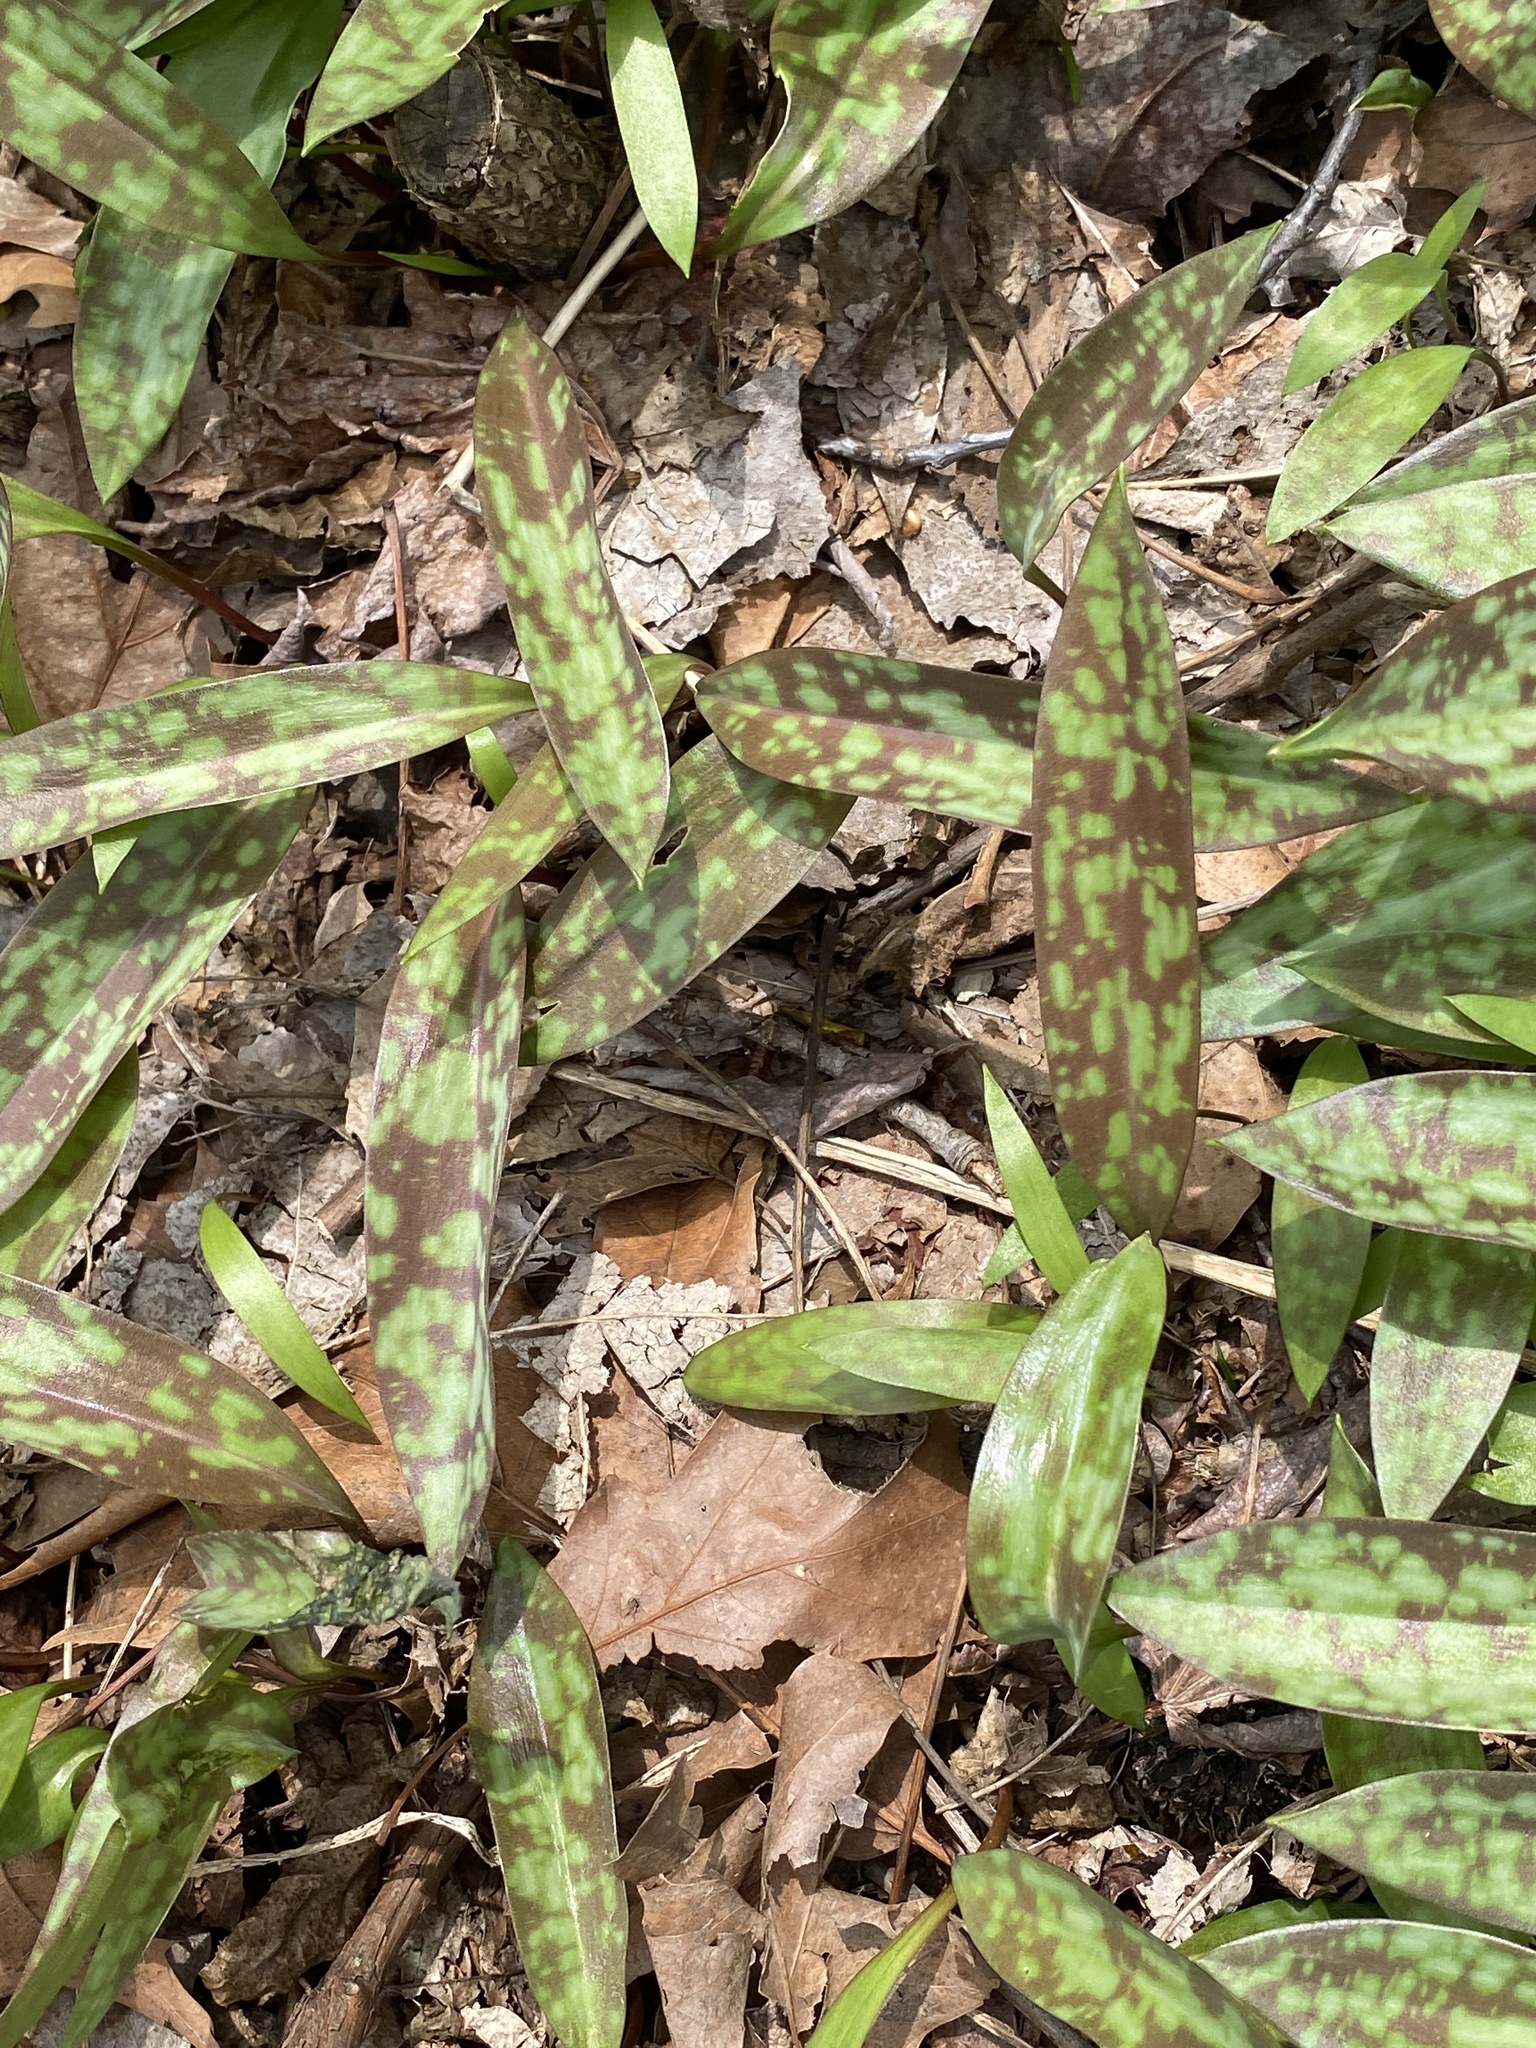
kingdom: Plantae
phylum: Tracheophyta
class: Liliopsida
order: Liliales
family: Liliaceae
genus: Erythronium
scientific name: Erythronium americanum
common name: Yellow adder's-tongue
